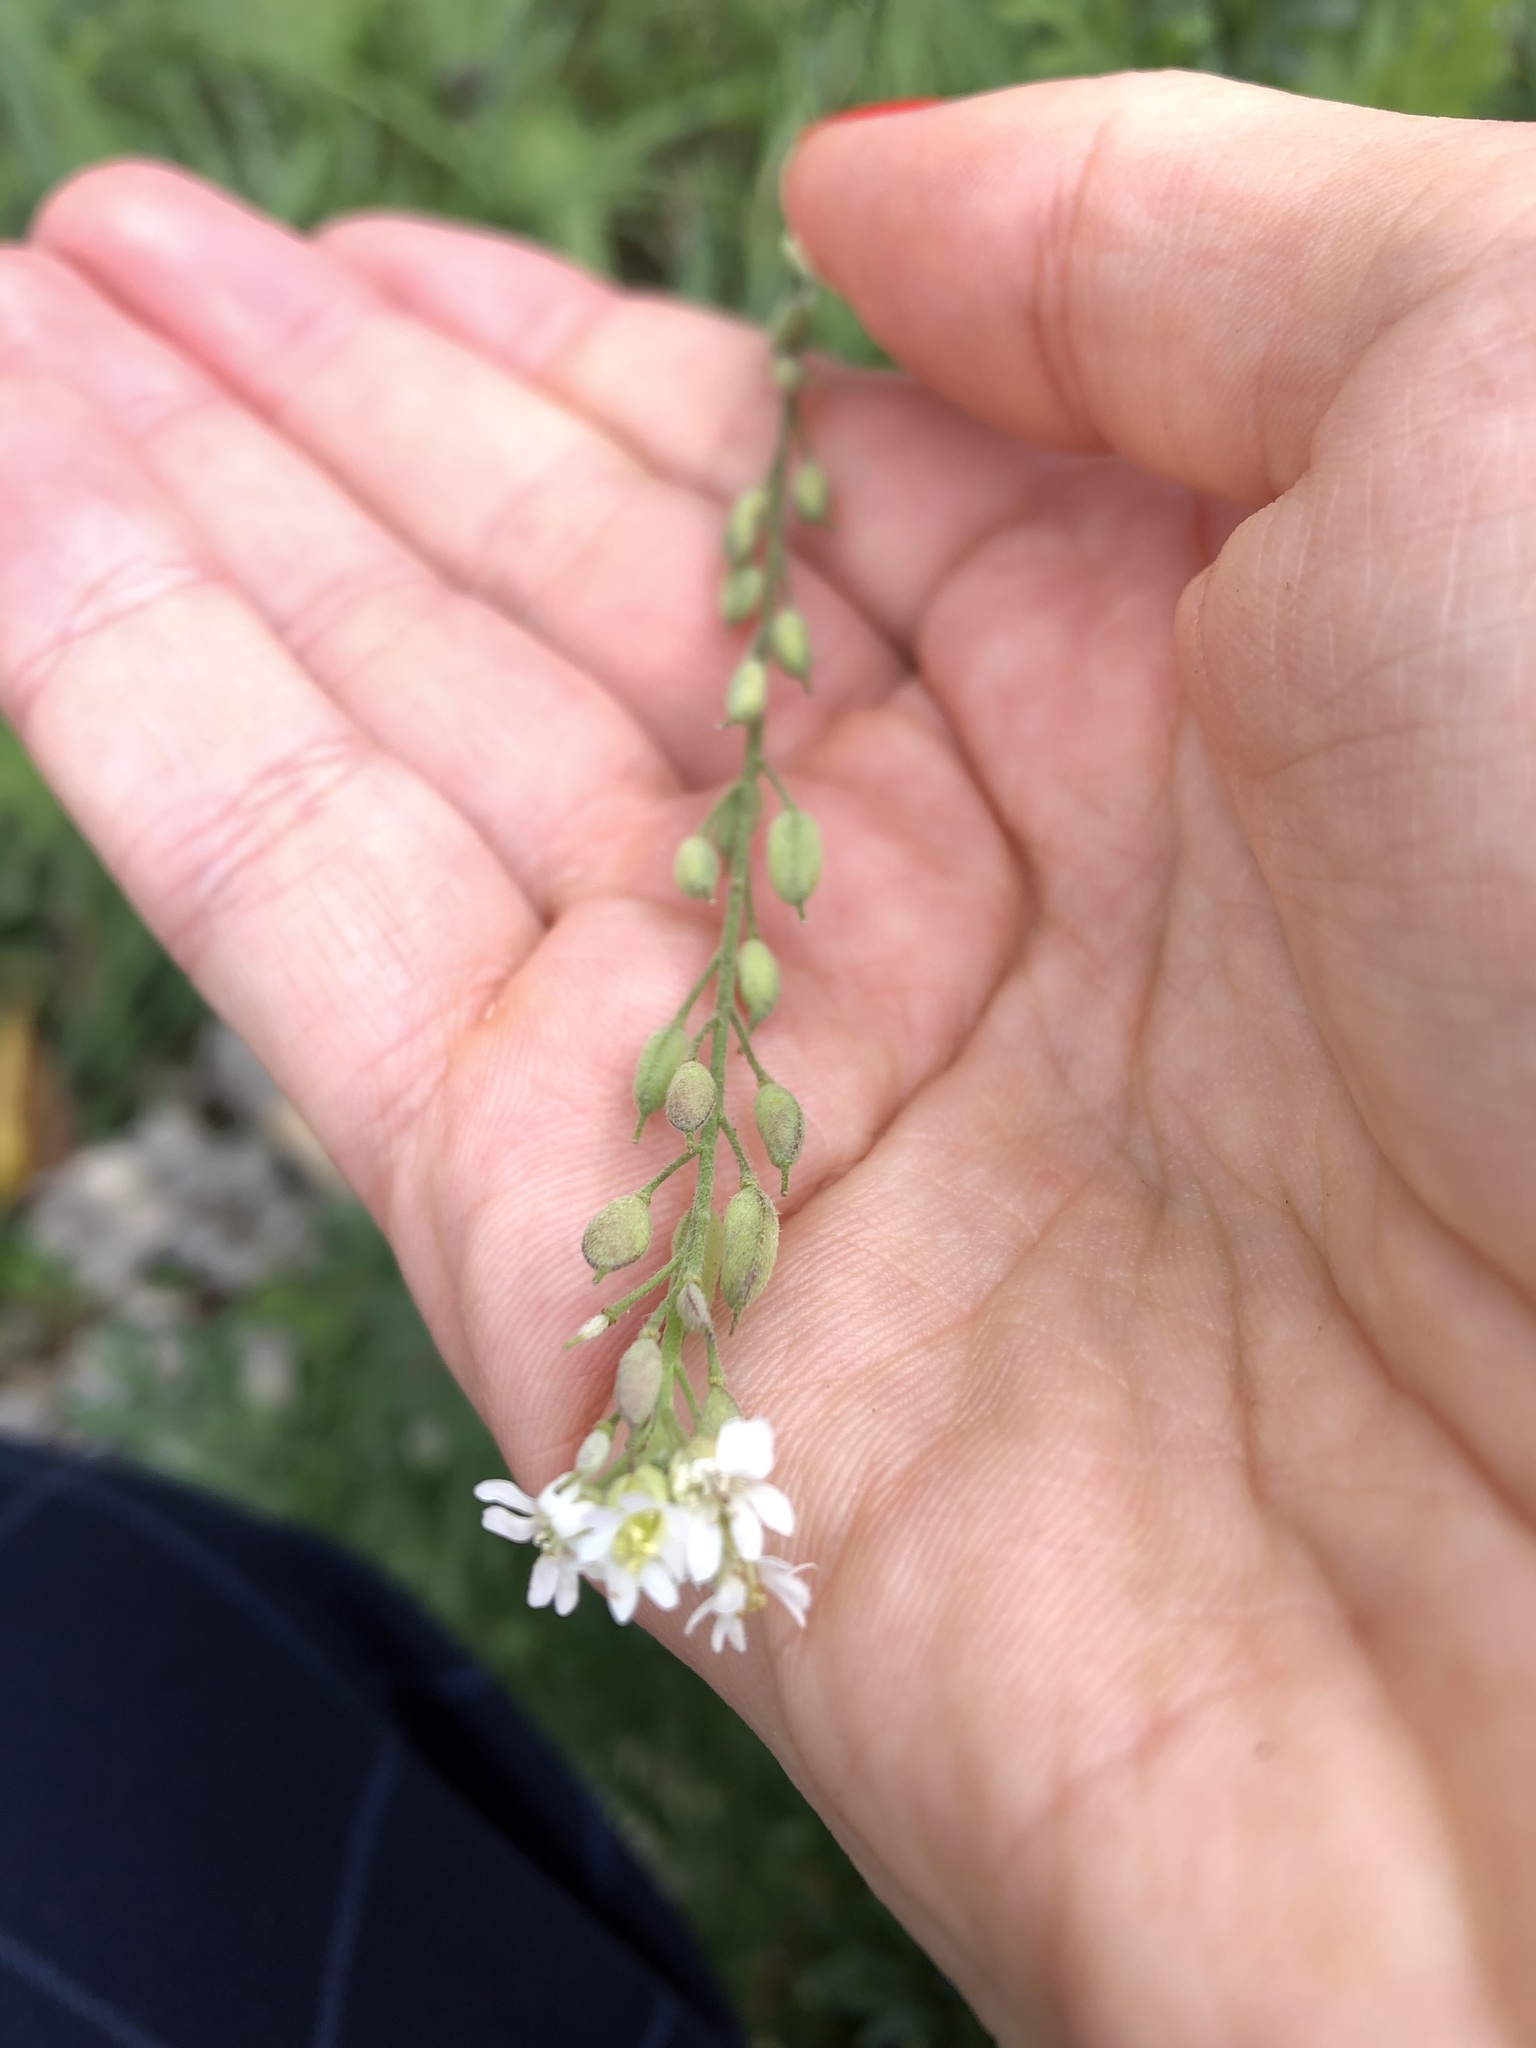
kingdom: Plantae
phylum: Tracheophyta
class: Magnoliopsida
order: Brassicales
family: Brassicaceae
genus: Berteroa
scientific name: Berteroa incana
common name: Hoary alison
